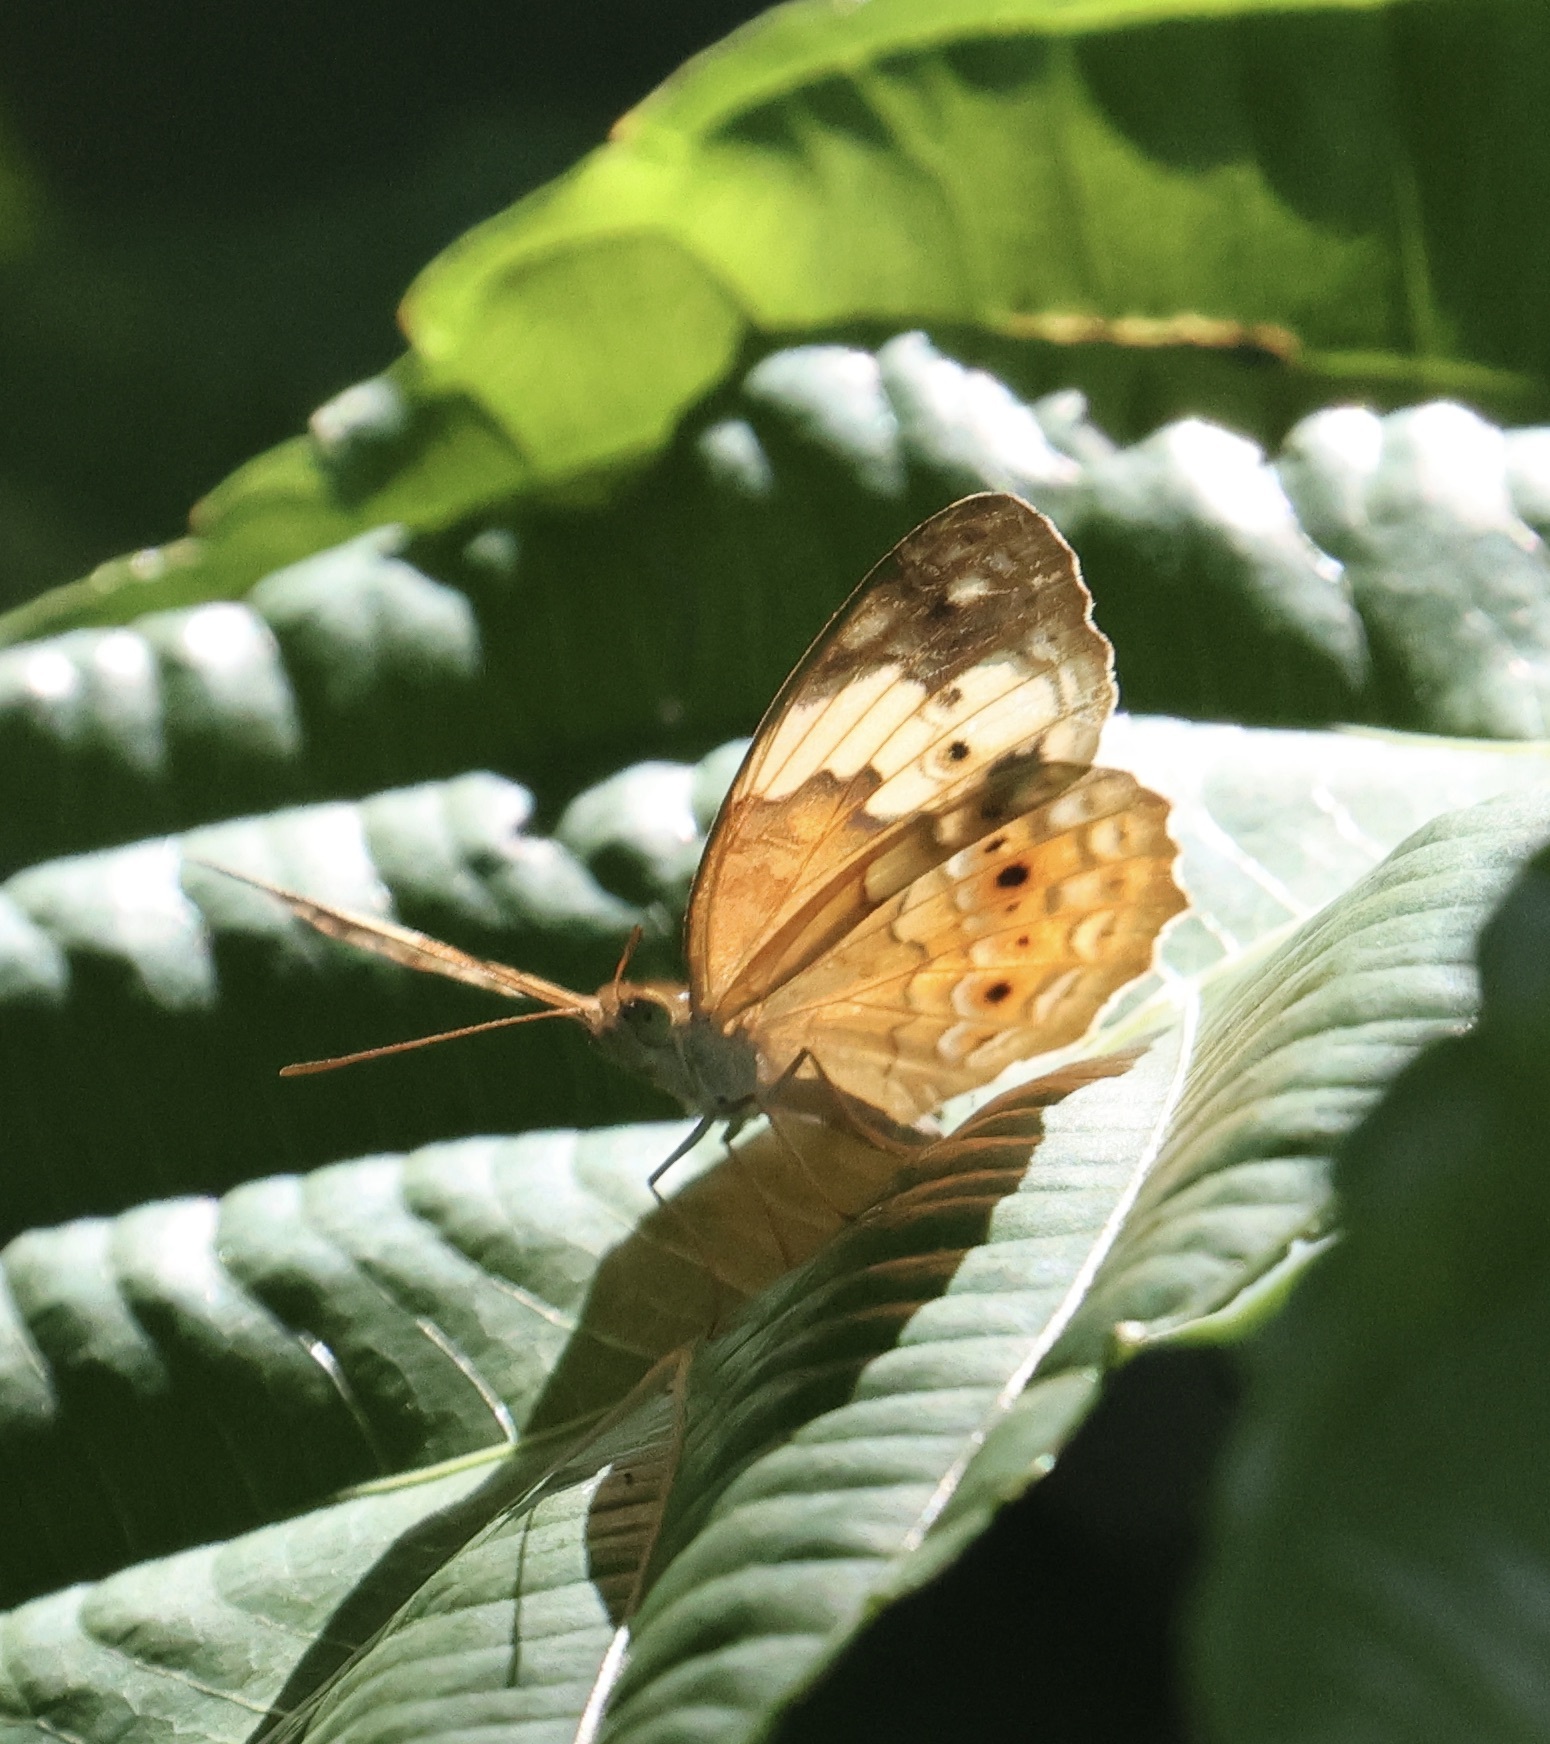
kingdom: Animalia
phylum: Arthropoda
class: Insecta
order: Lepidoptera
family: Nymphalidae
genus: Cupha
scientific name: Cupha erymanthis
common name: Rustic
